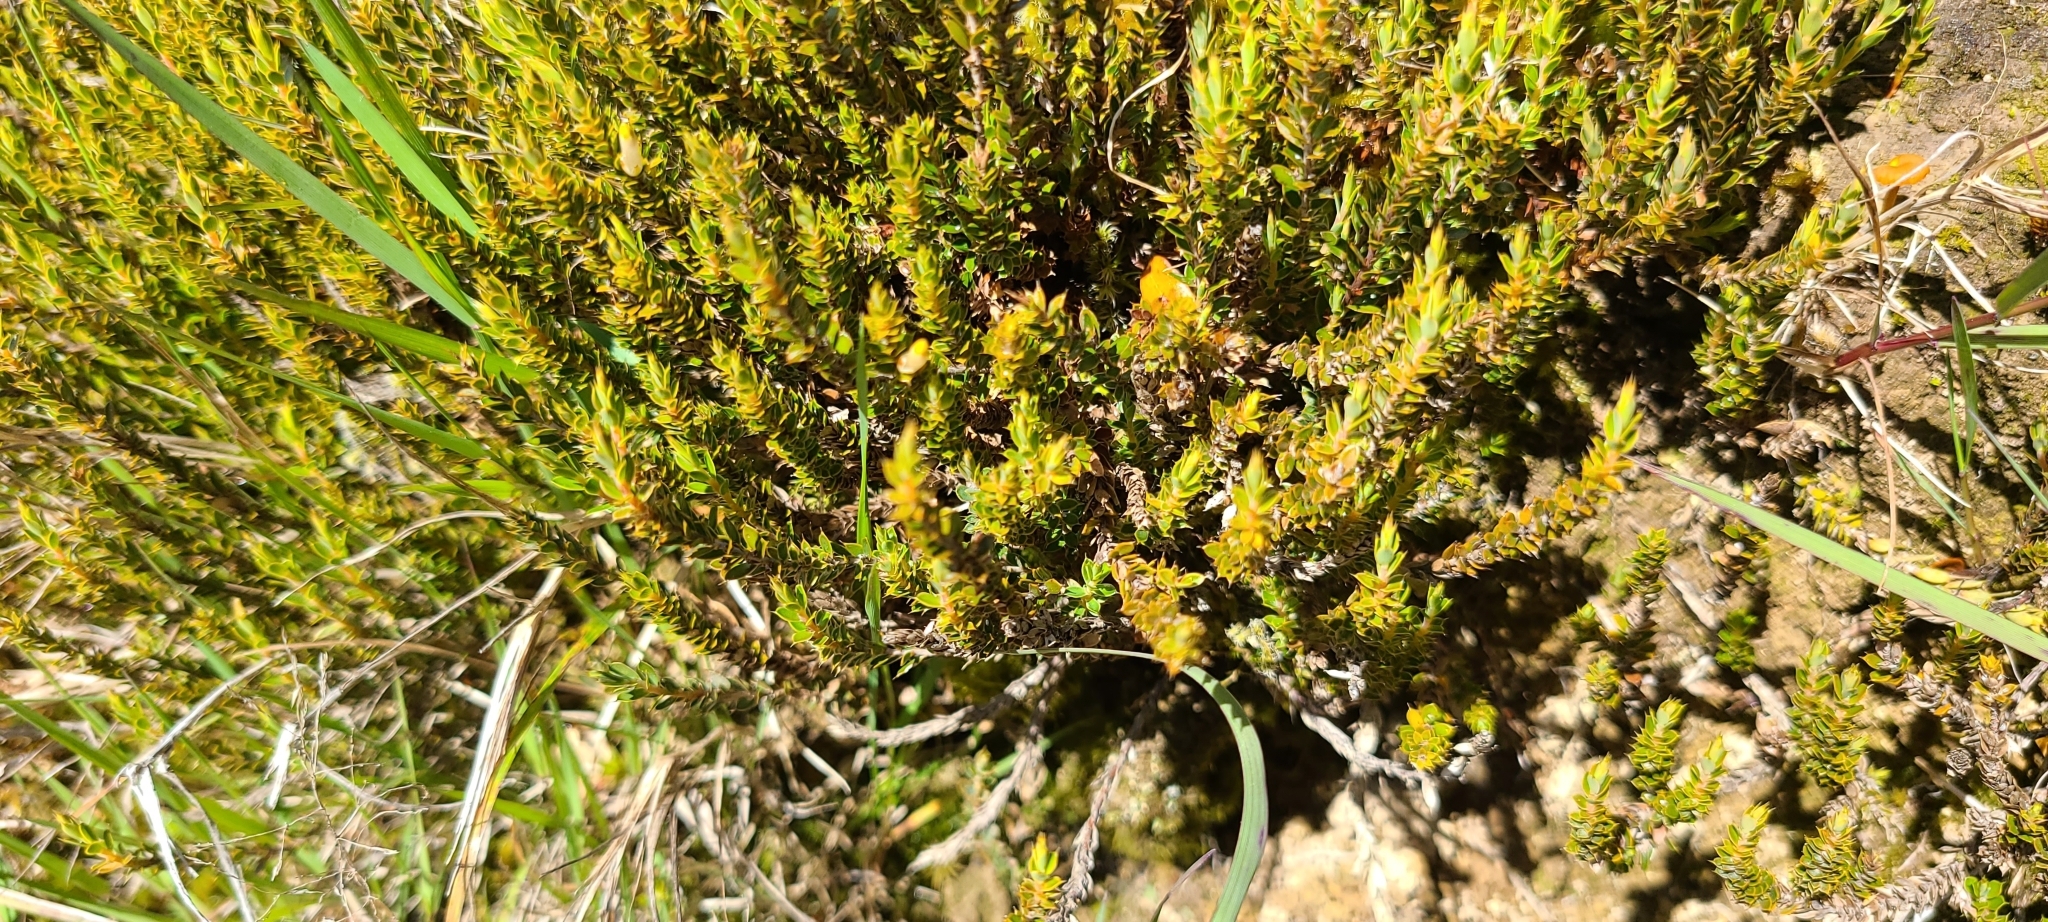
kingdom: Plantae
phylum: Tracheophyta
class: Magnoliopsida
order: Ericales
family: Ericaceae
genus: Styphelia
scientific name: Styphelia nesophila
